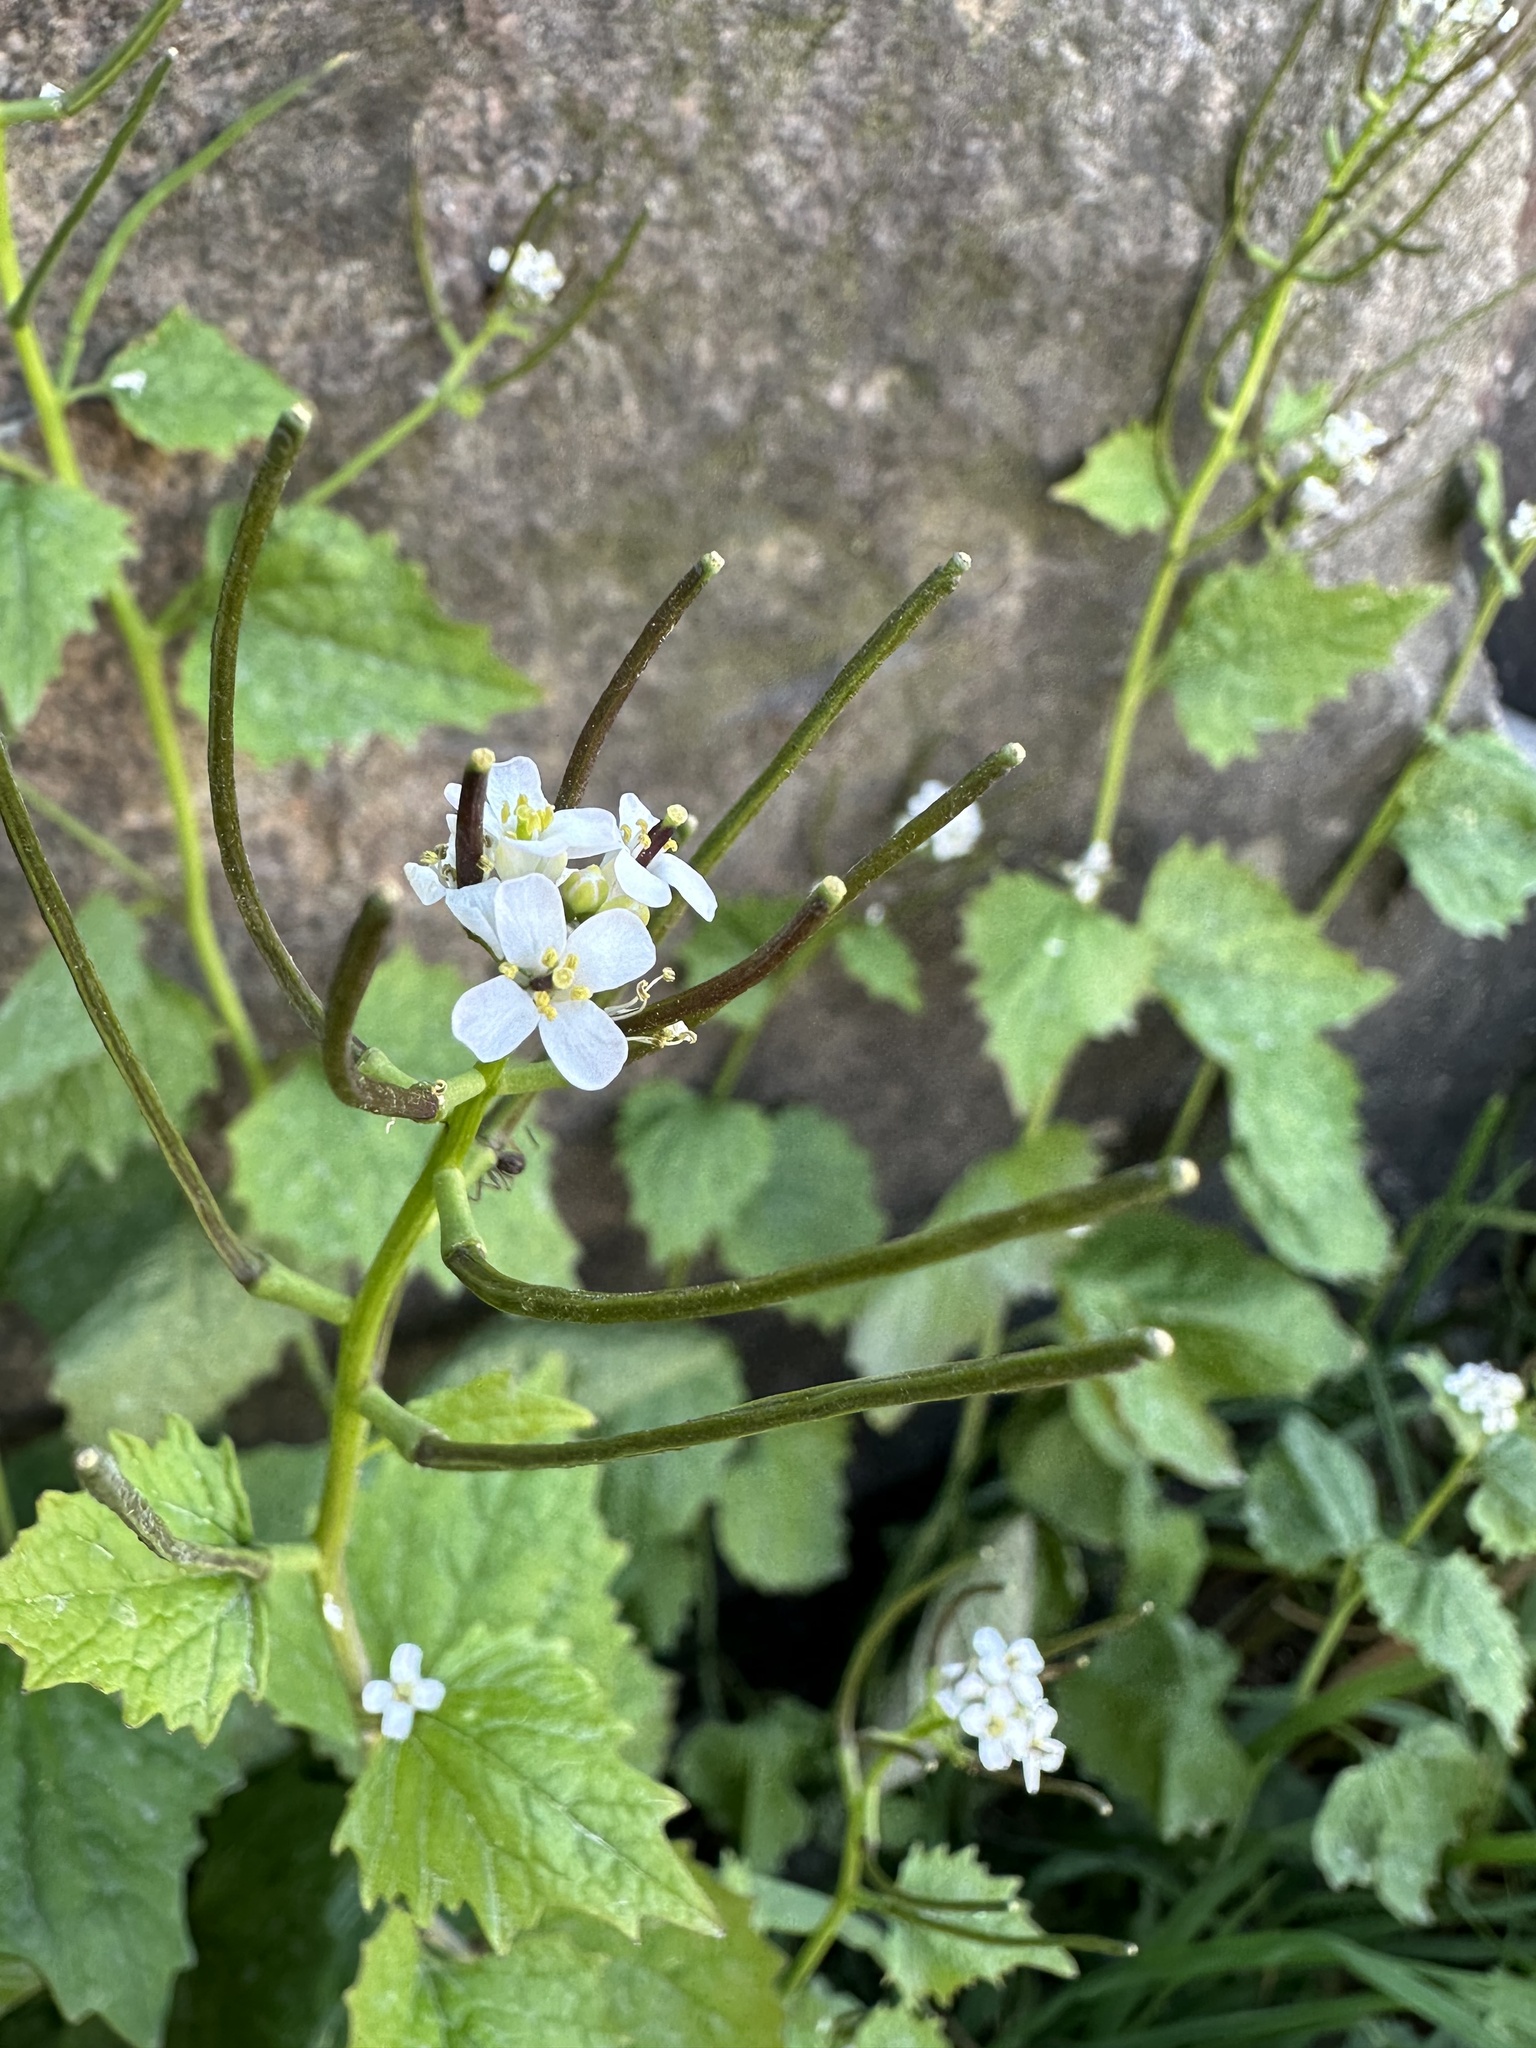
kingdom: Plantae
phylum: Tracheophyta
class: Magnoliopsida
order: Brassicales
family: Brassicaceae
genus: Alliaria
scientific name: Alliaria petiolata
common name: Garlic mustard
